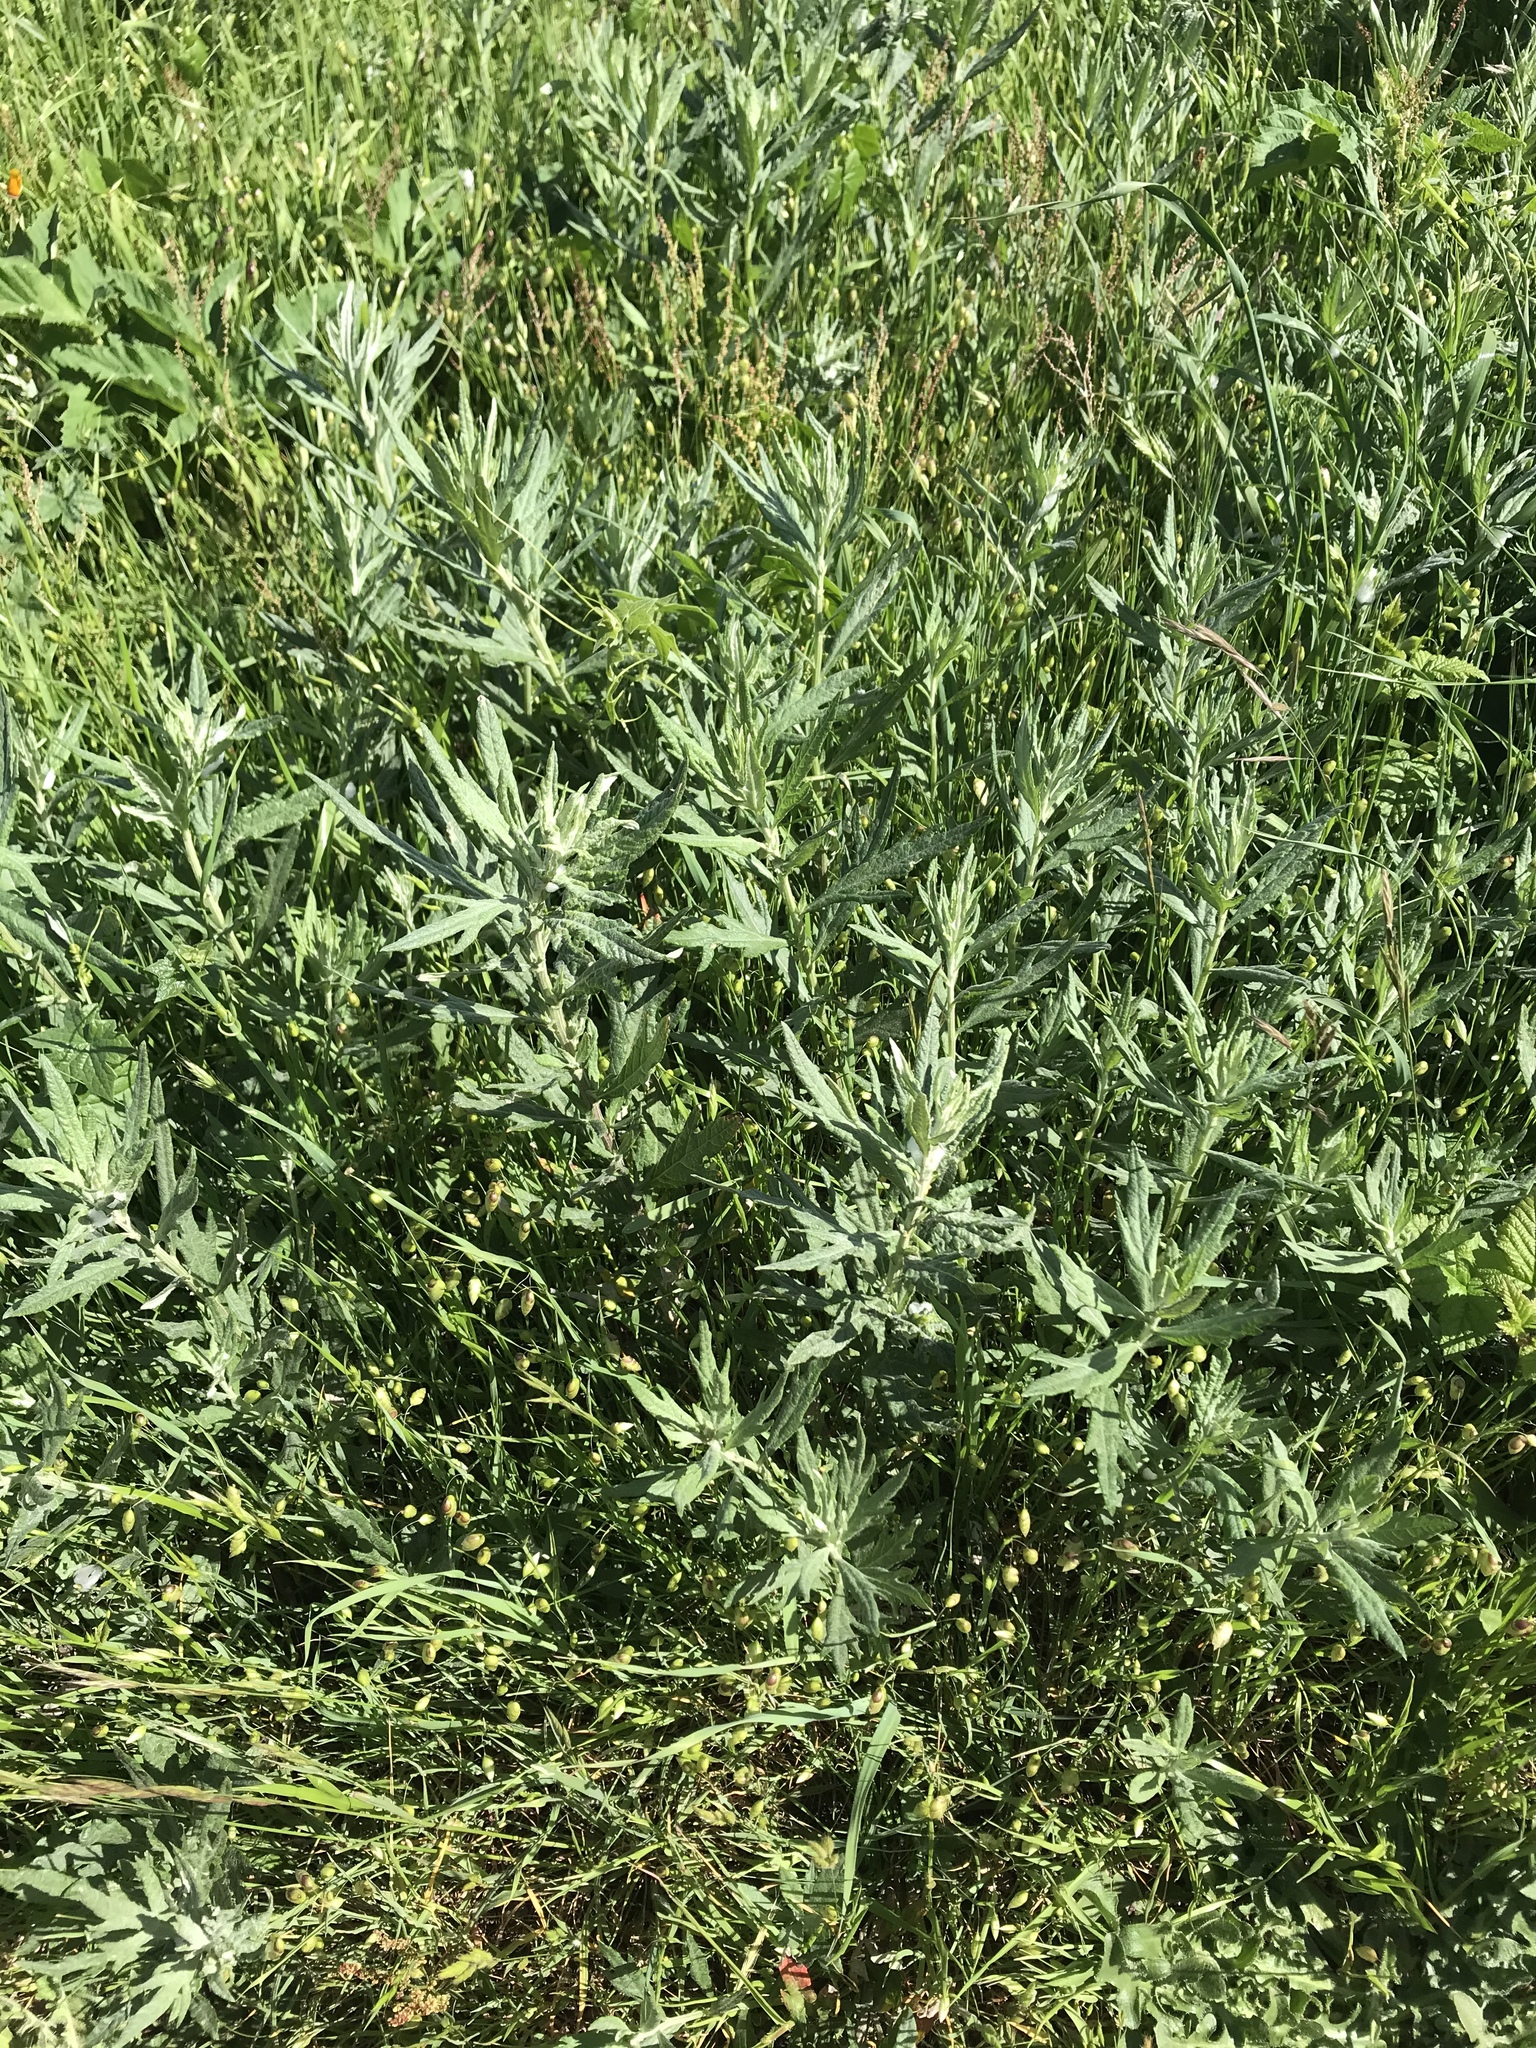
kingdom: Plantae
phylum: Tracheophyta
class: Magnoliopsida
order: Asterales
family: Asteraceae
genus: Artemisia
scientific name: Artemisia douglasiana
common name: Northwest mugwort
